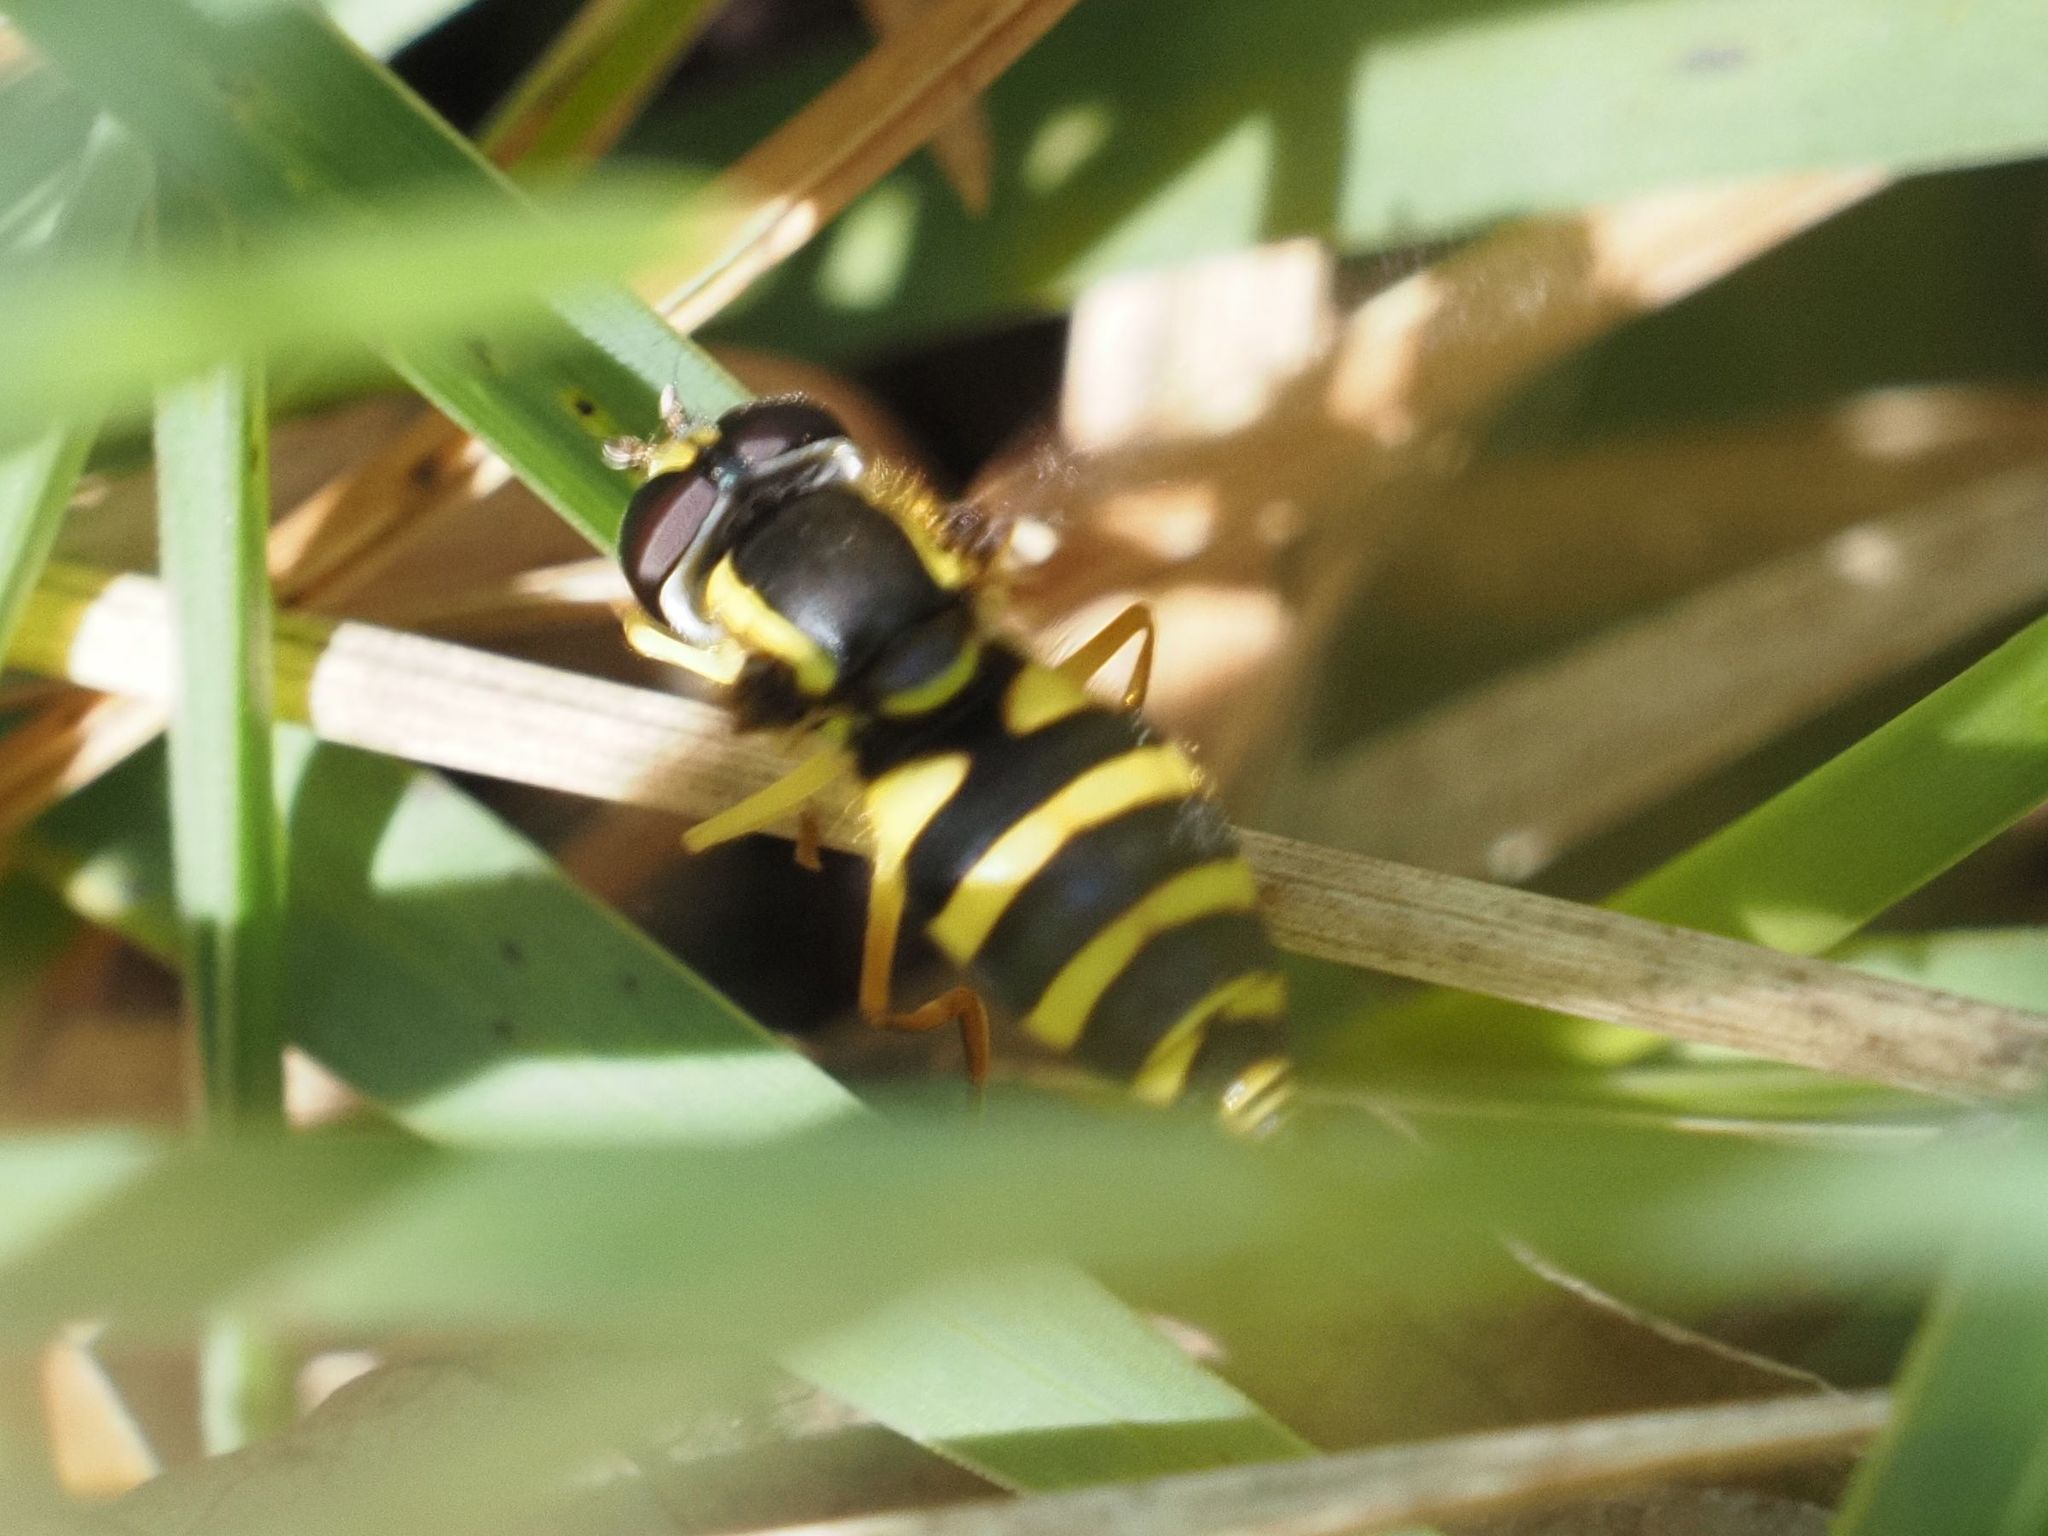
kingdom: Animalia
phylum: Arthropoda
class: Insecta
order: Diptera
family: Syrphidae
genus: Philhelius
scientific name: Philhelius laetus
